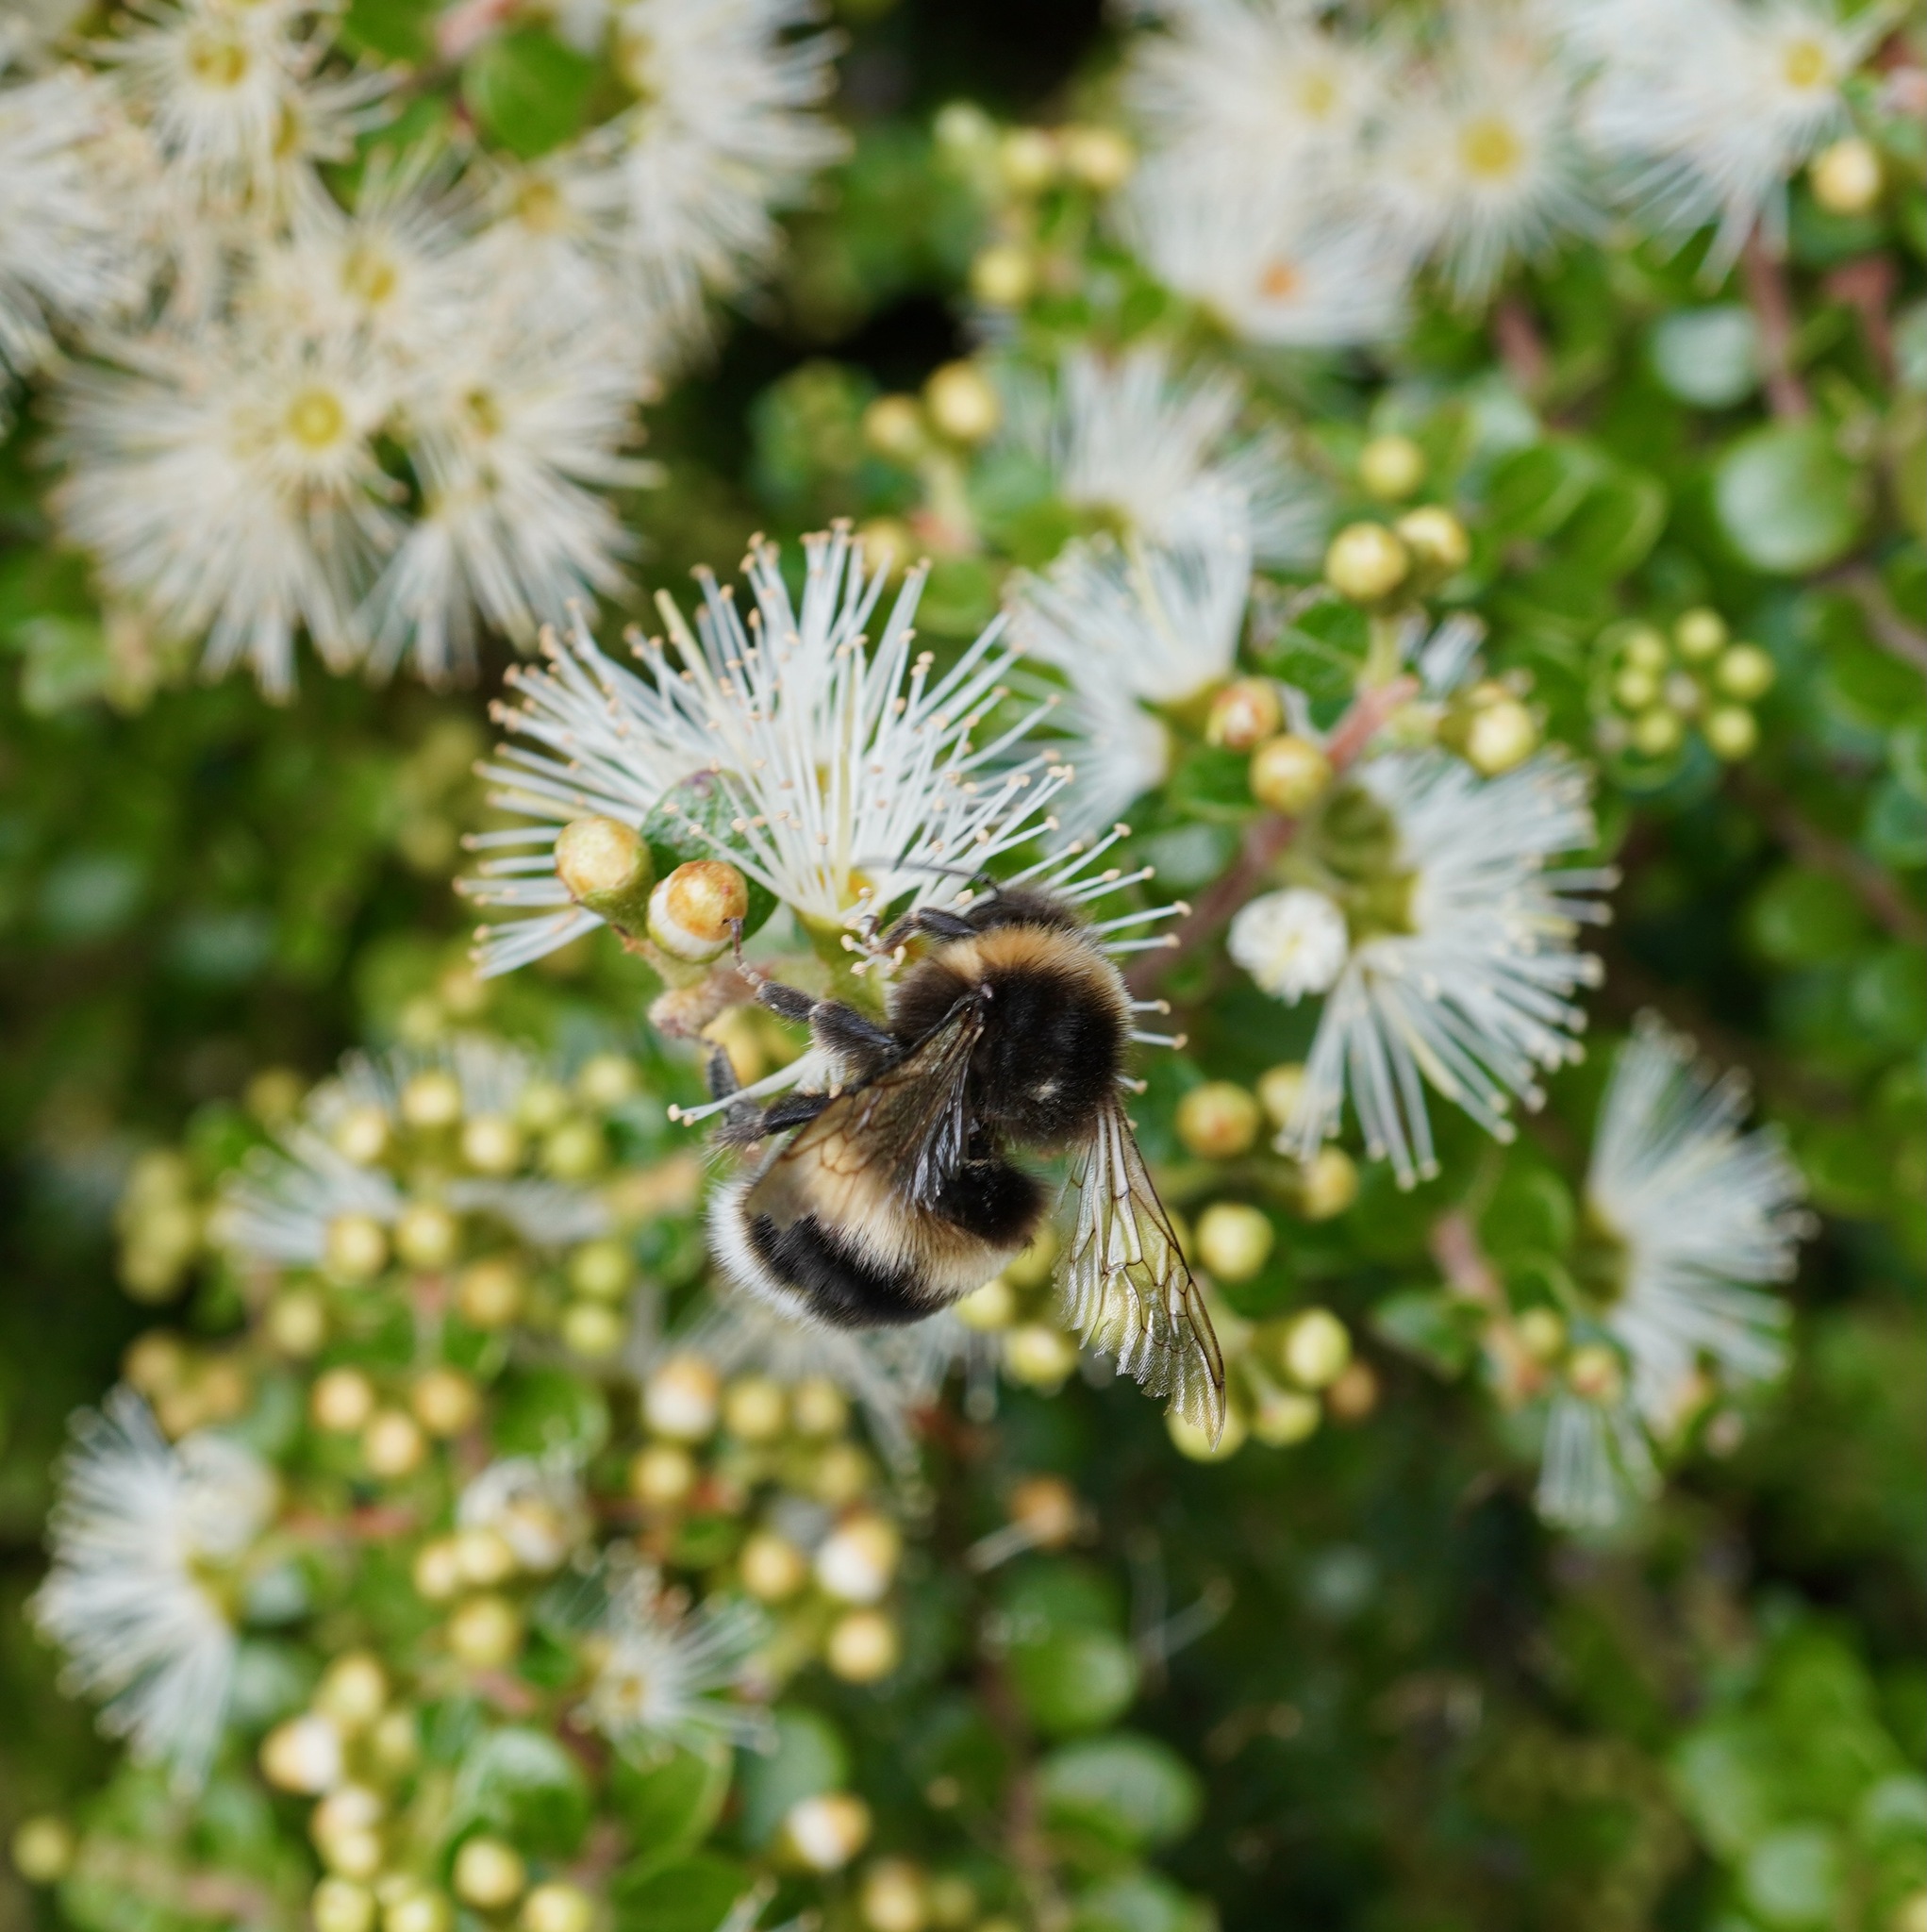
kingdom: Animalia
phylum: Arthropoda
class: Insecta
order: Hymenoptera
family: Apidae
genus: Bombus
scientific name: Bombus terrestris
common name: Buff-tailed bumblebee
